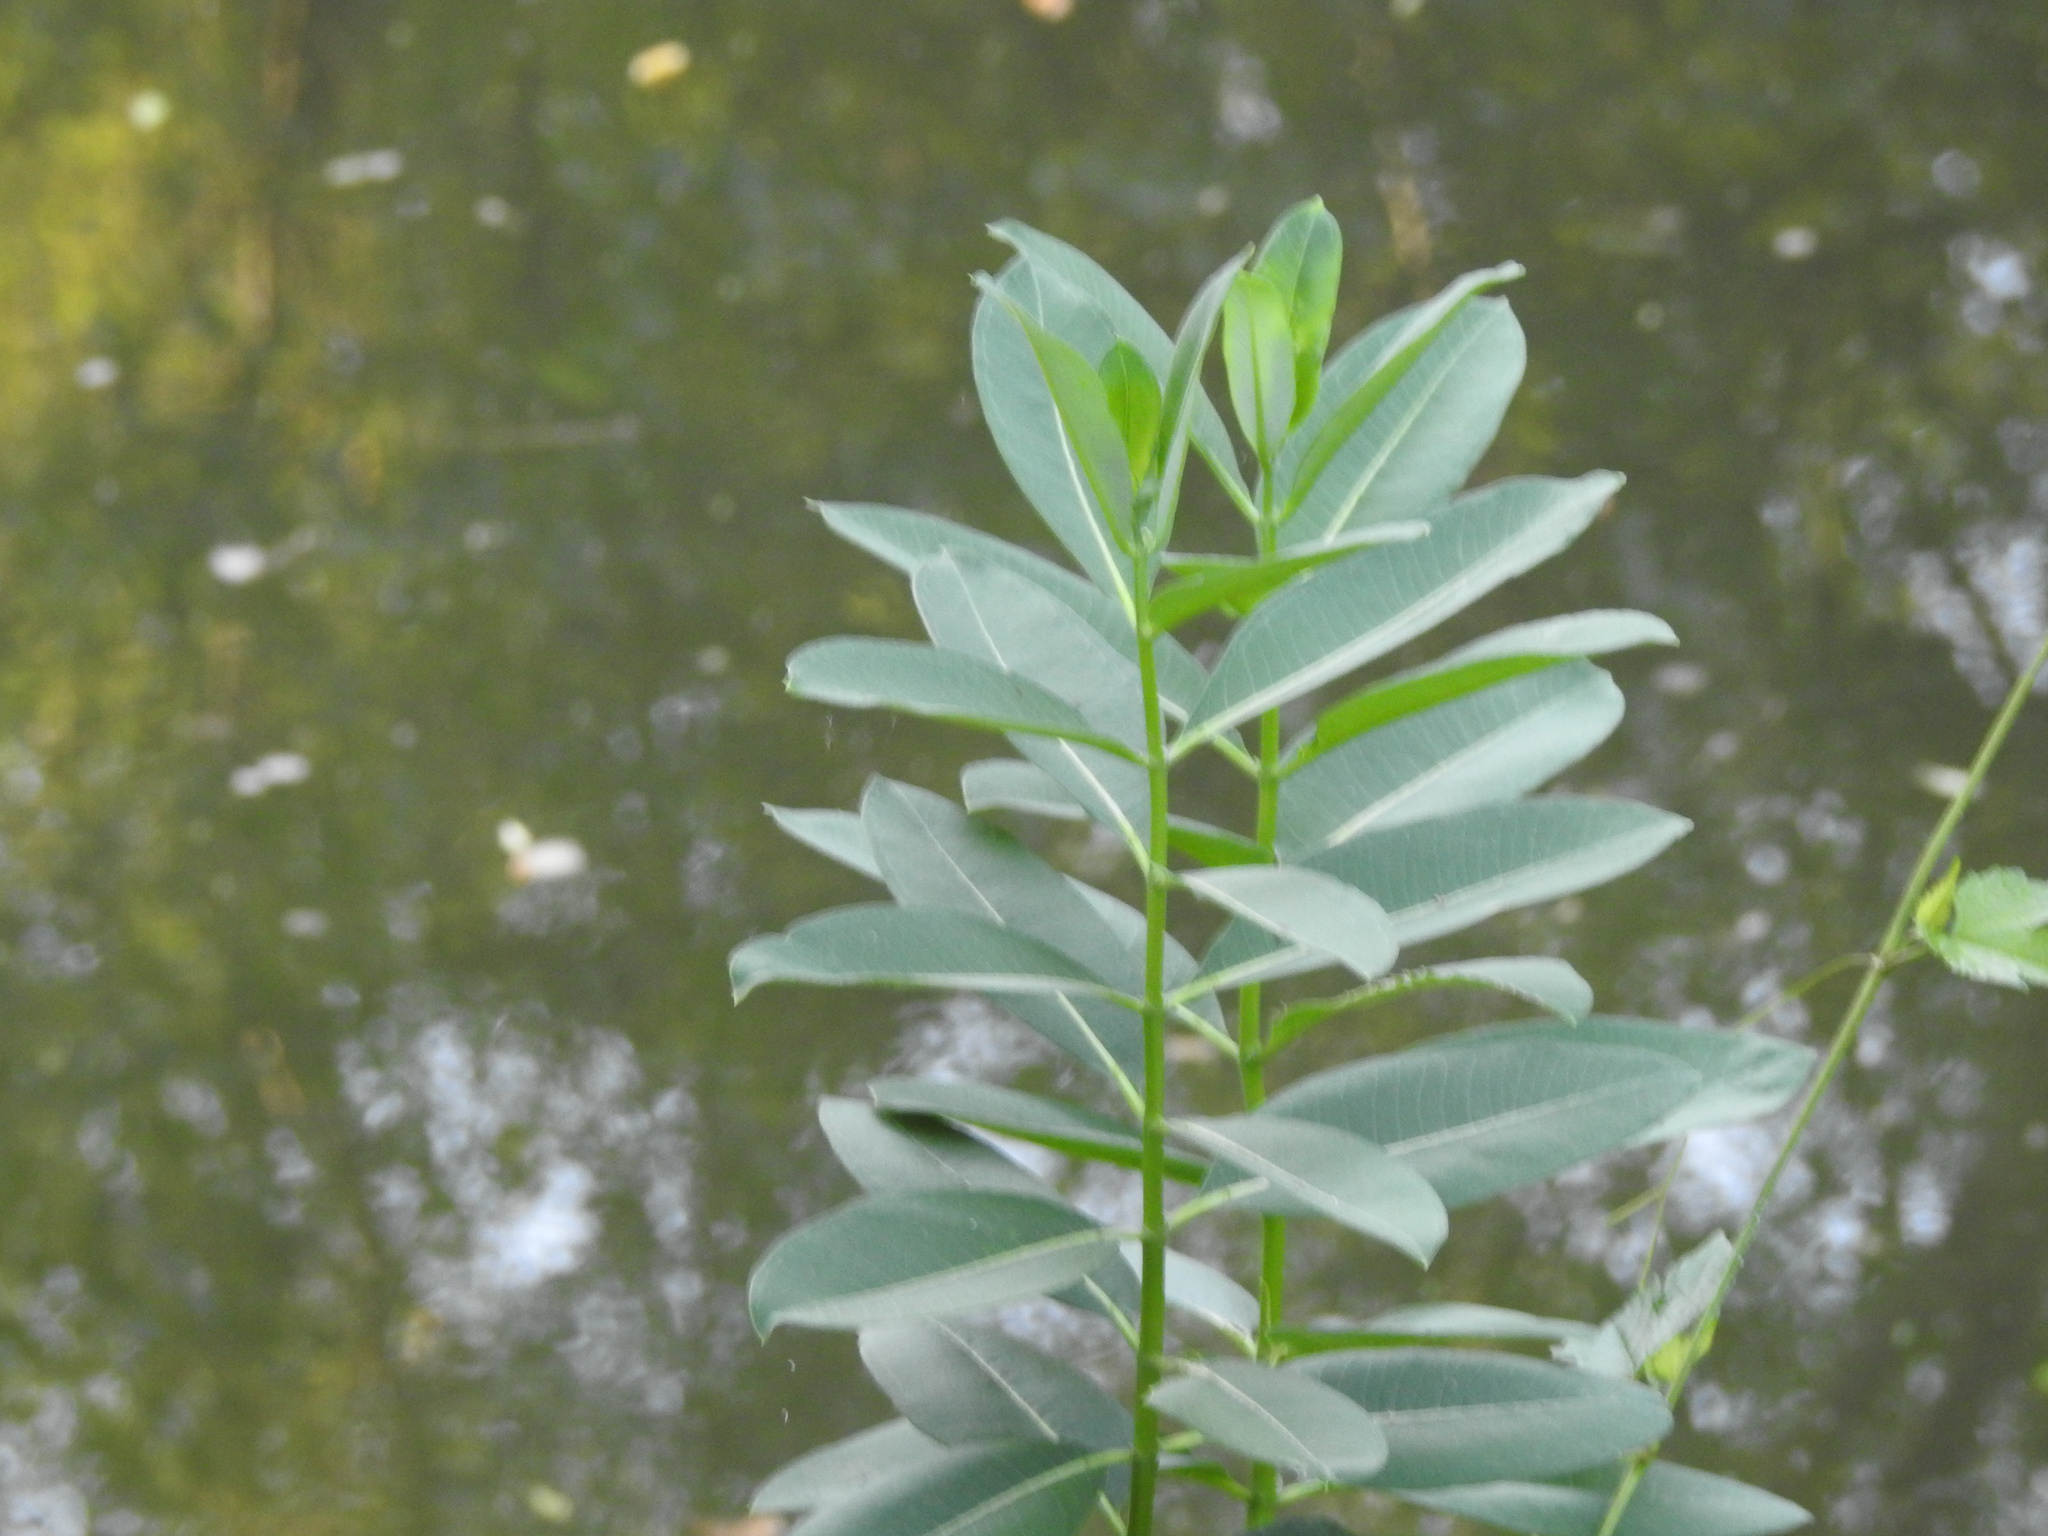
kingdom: Plantae
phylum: Tracheophyta
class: Magnoliopsida
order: Gentianales
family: Apocynaceae
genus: Asclepias
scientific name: Asclepias syriaca
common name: Common milkweed
